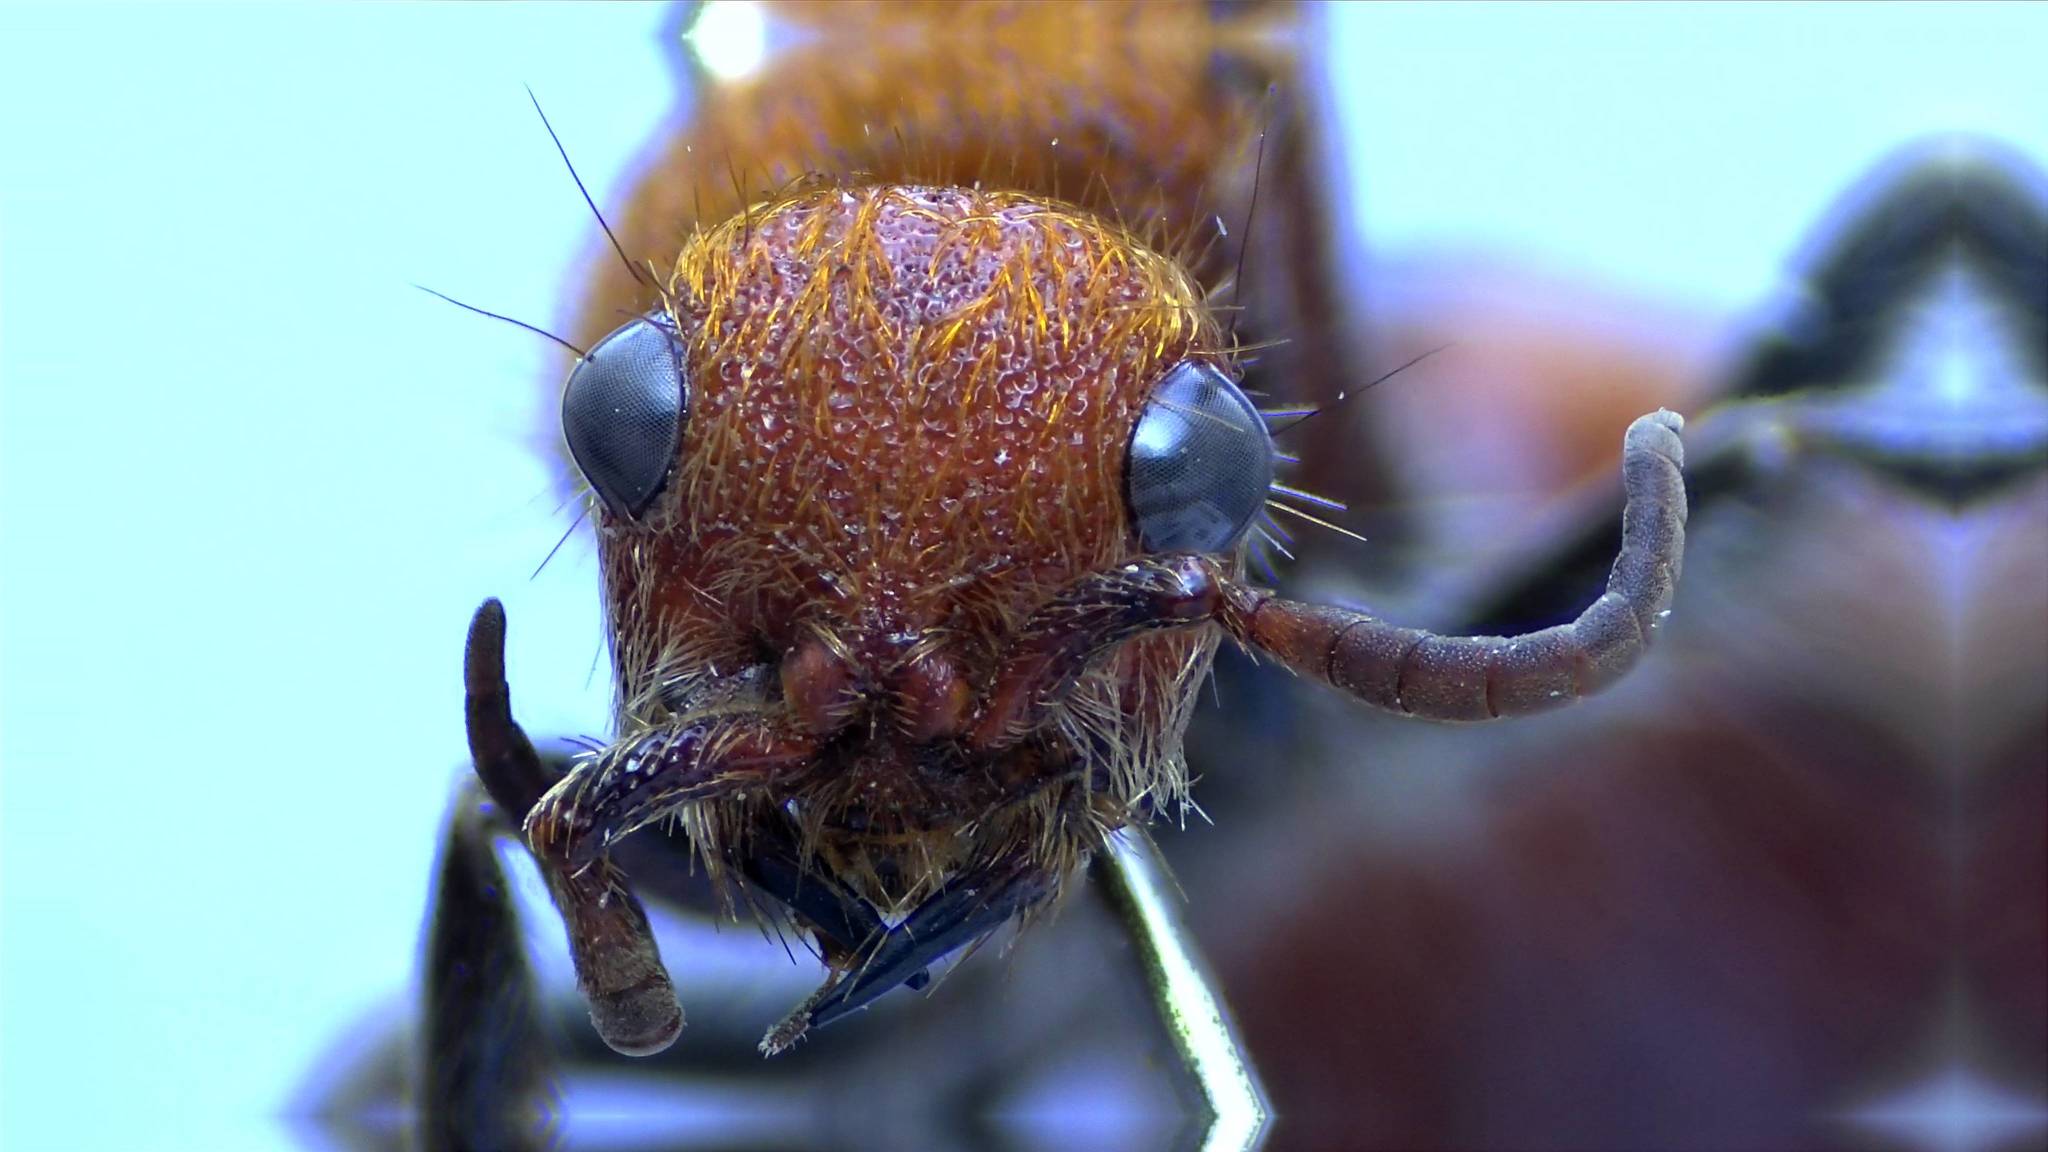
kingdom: Animalia
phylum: Arthropoda
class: Insecta
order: Hymenoptera
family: Mutillidae
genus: Dasymutilla
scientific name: Dasymutilla
